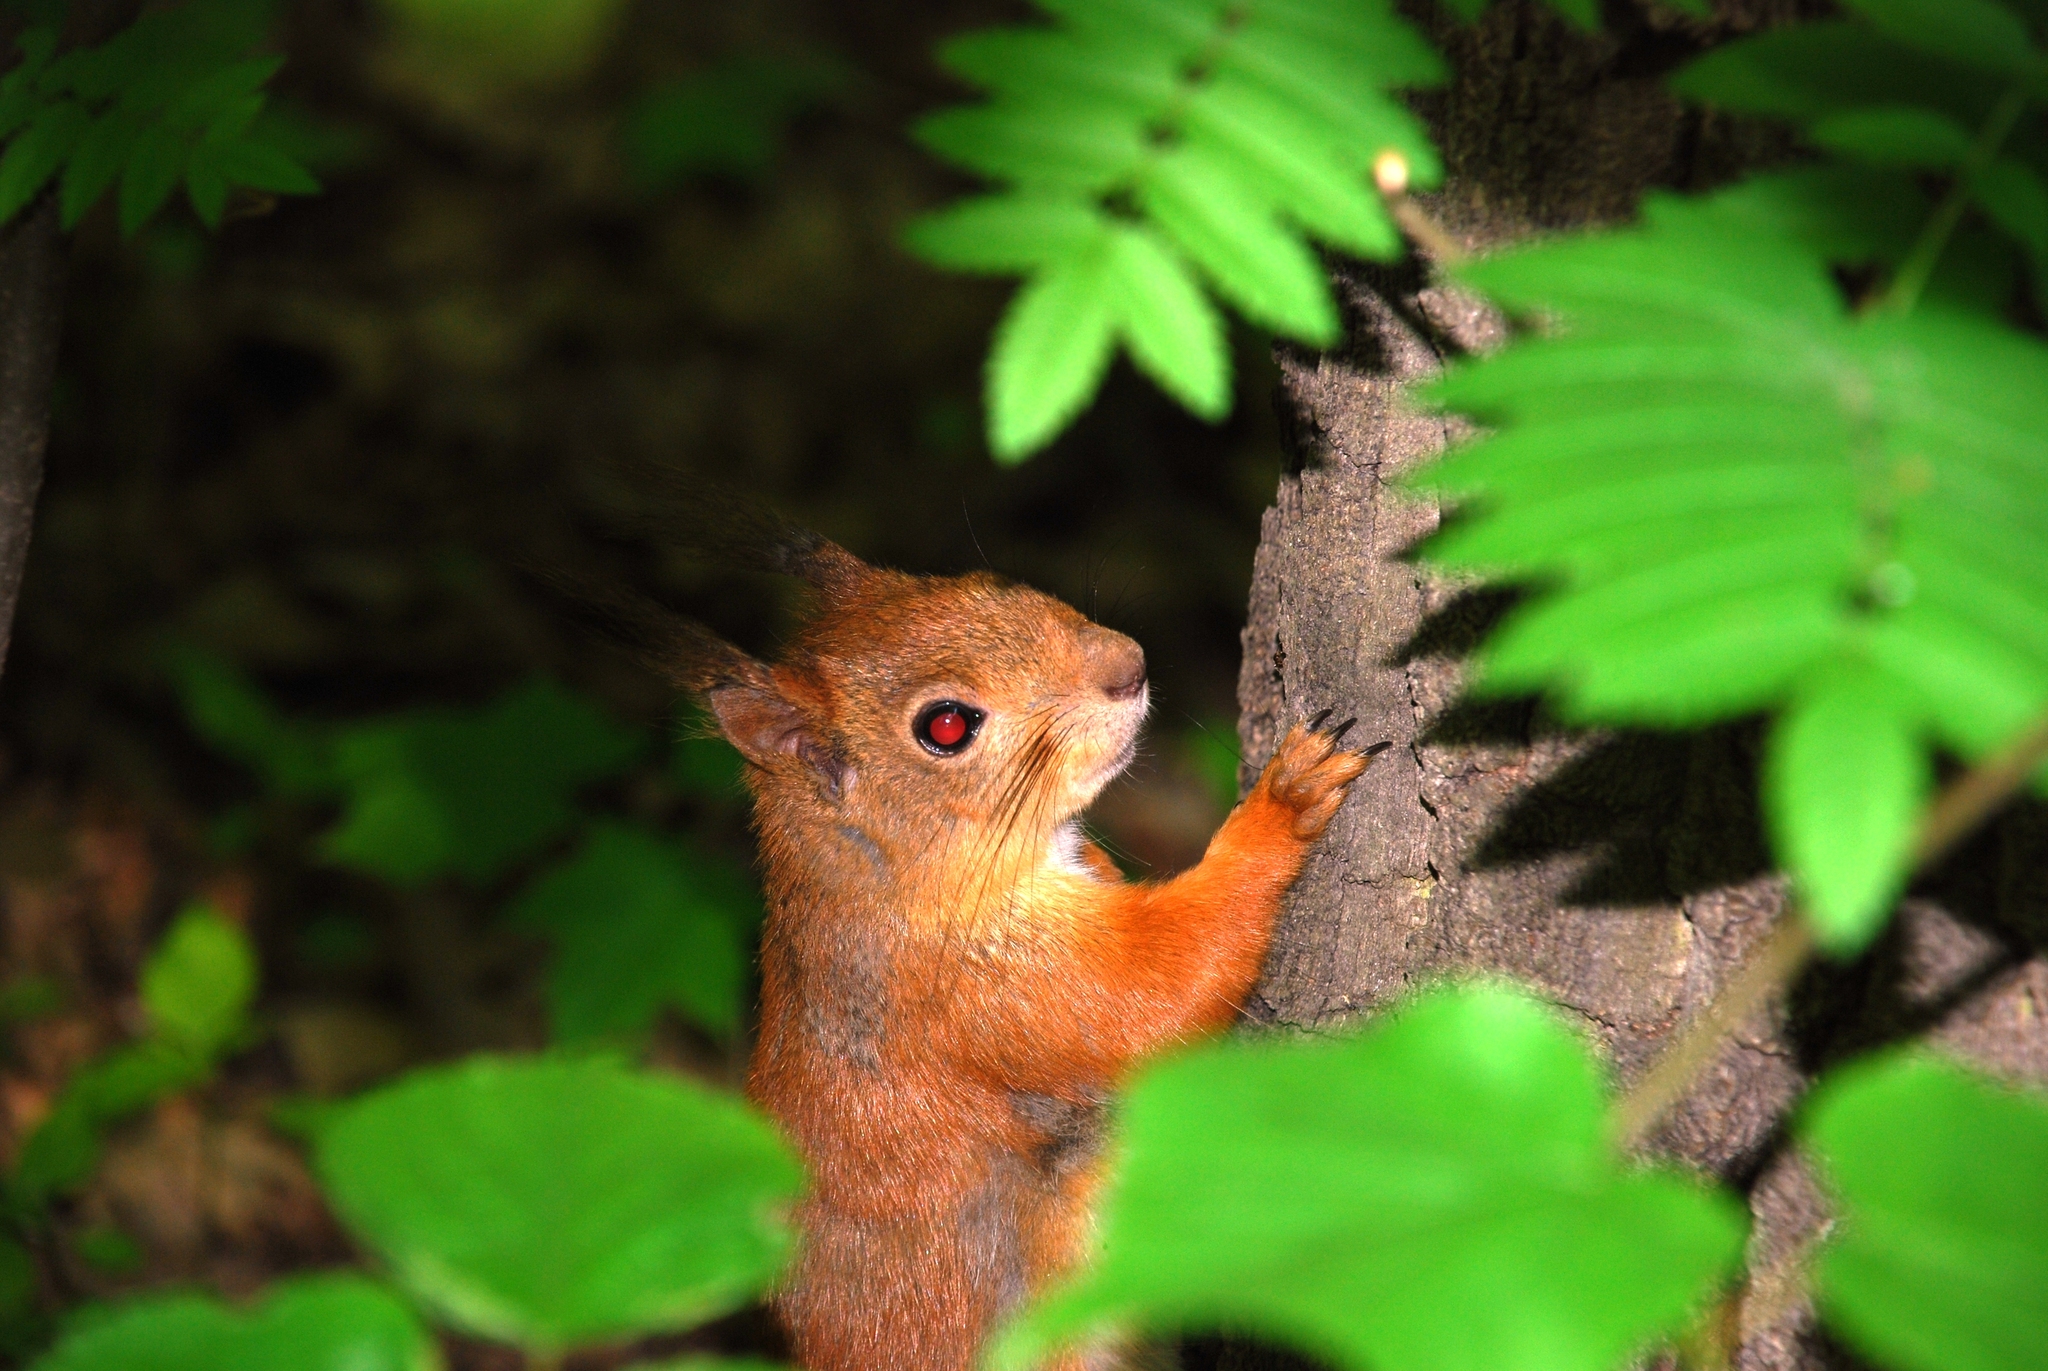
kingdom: Animalia
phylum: Chordata
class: Mammalia
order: Rodentia
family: Sciuridae
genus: Sciurus
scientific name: Sciurus vulgaris
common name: Eurasian red squirrel
